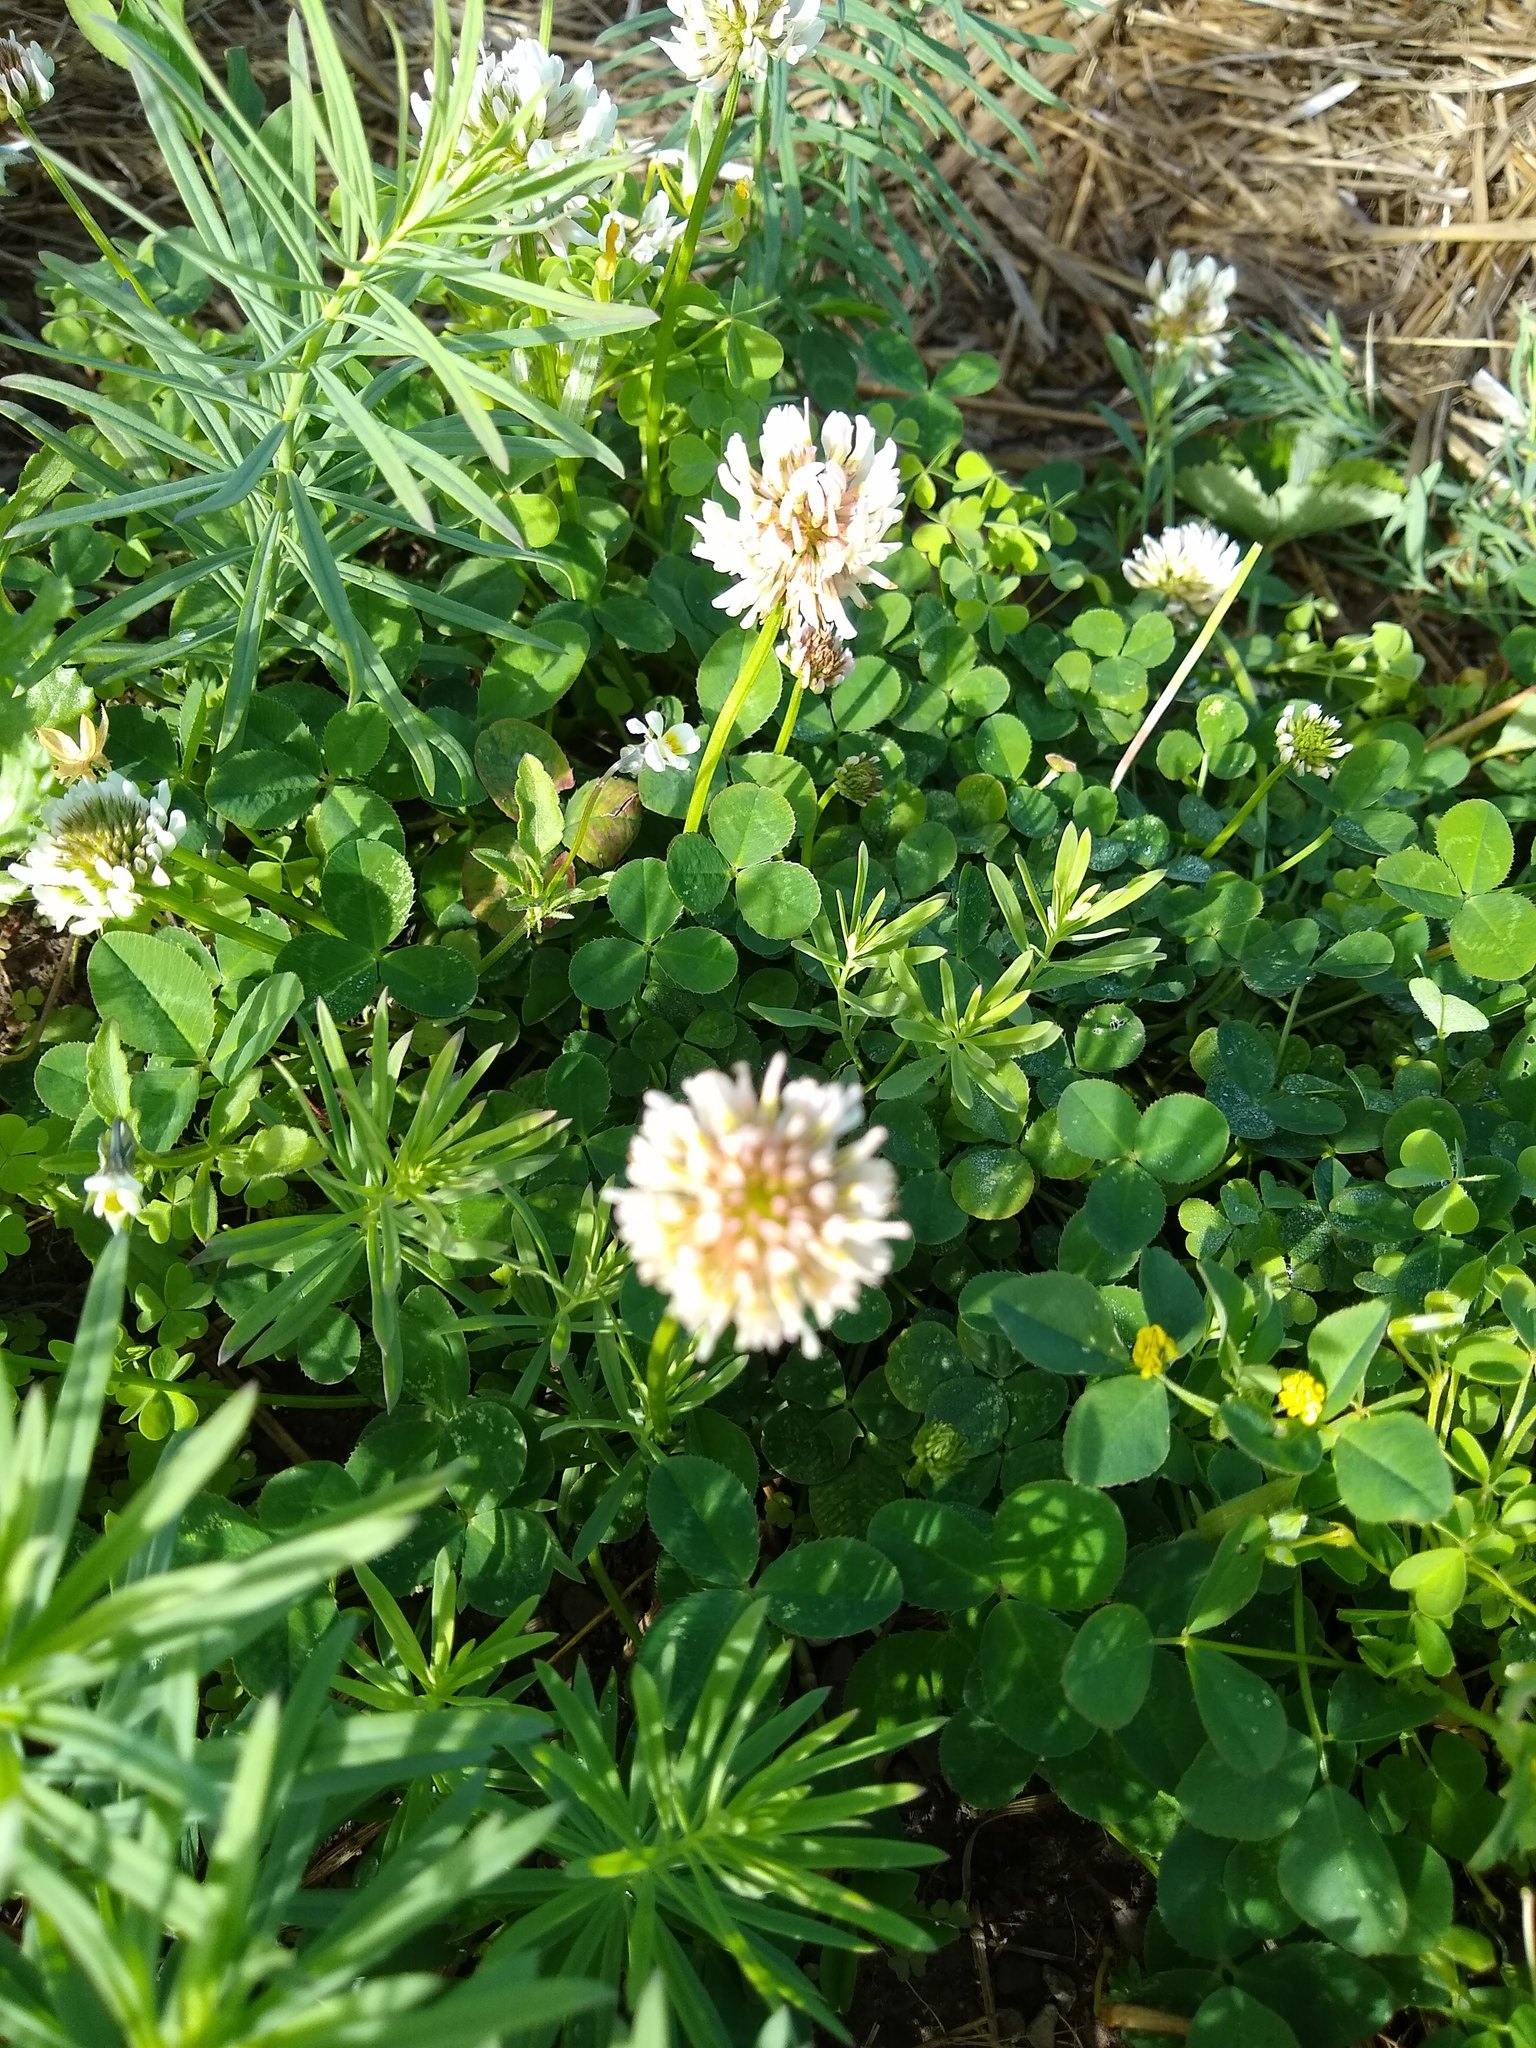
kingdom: Plantae
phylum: Tracheophyta
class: Magnoliopsida
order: Fabales
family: Fabaceae
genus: Trifolium
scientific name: Trifolium repens
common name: White clover
